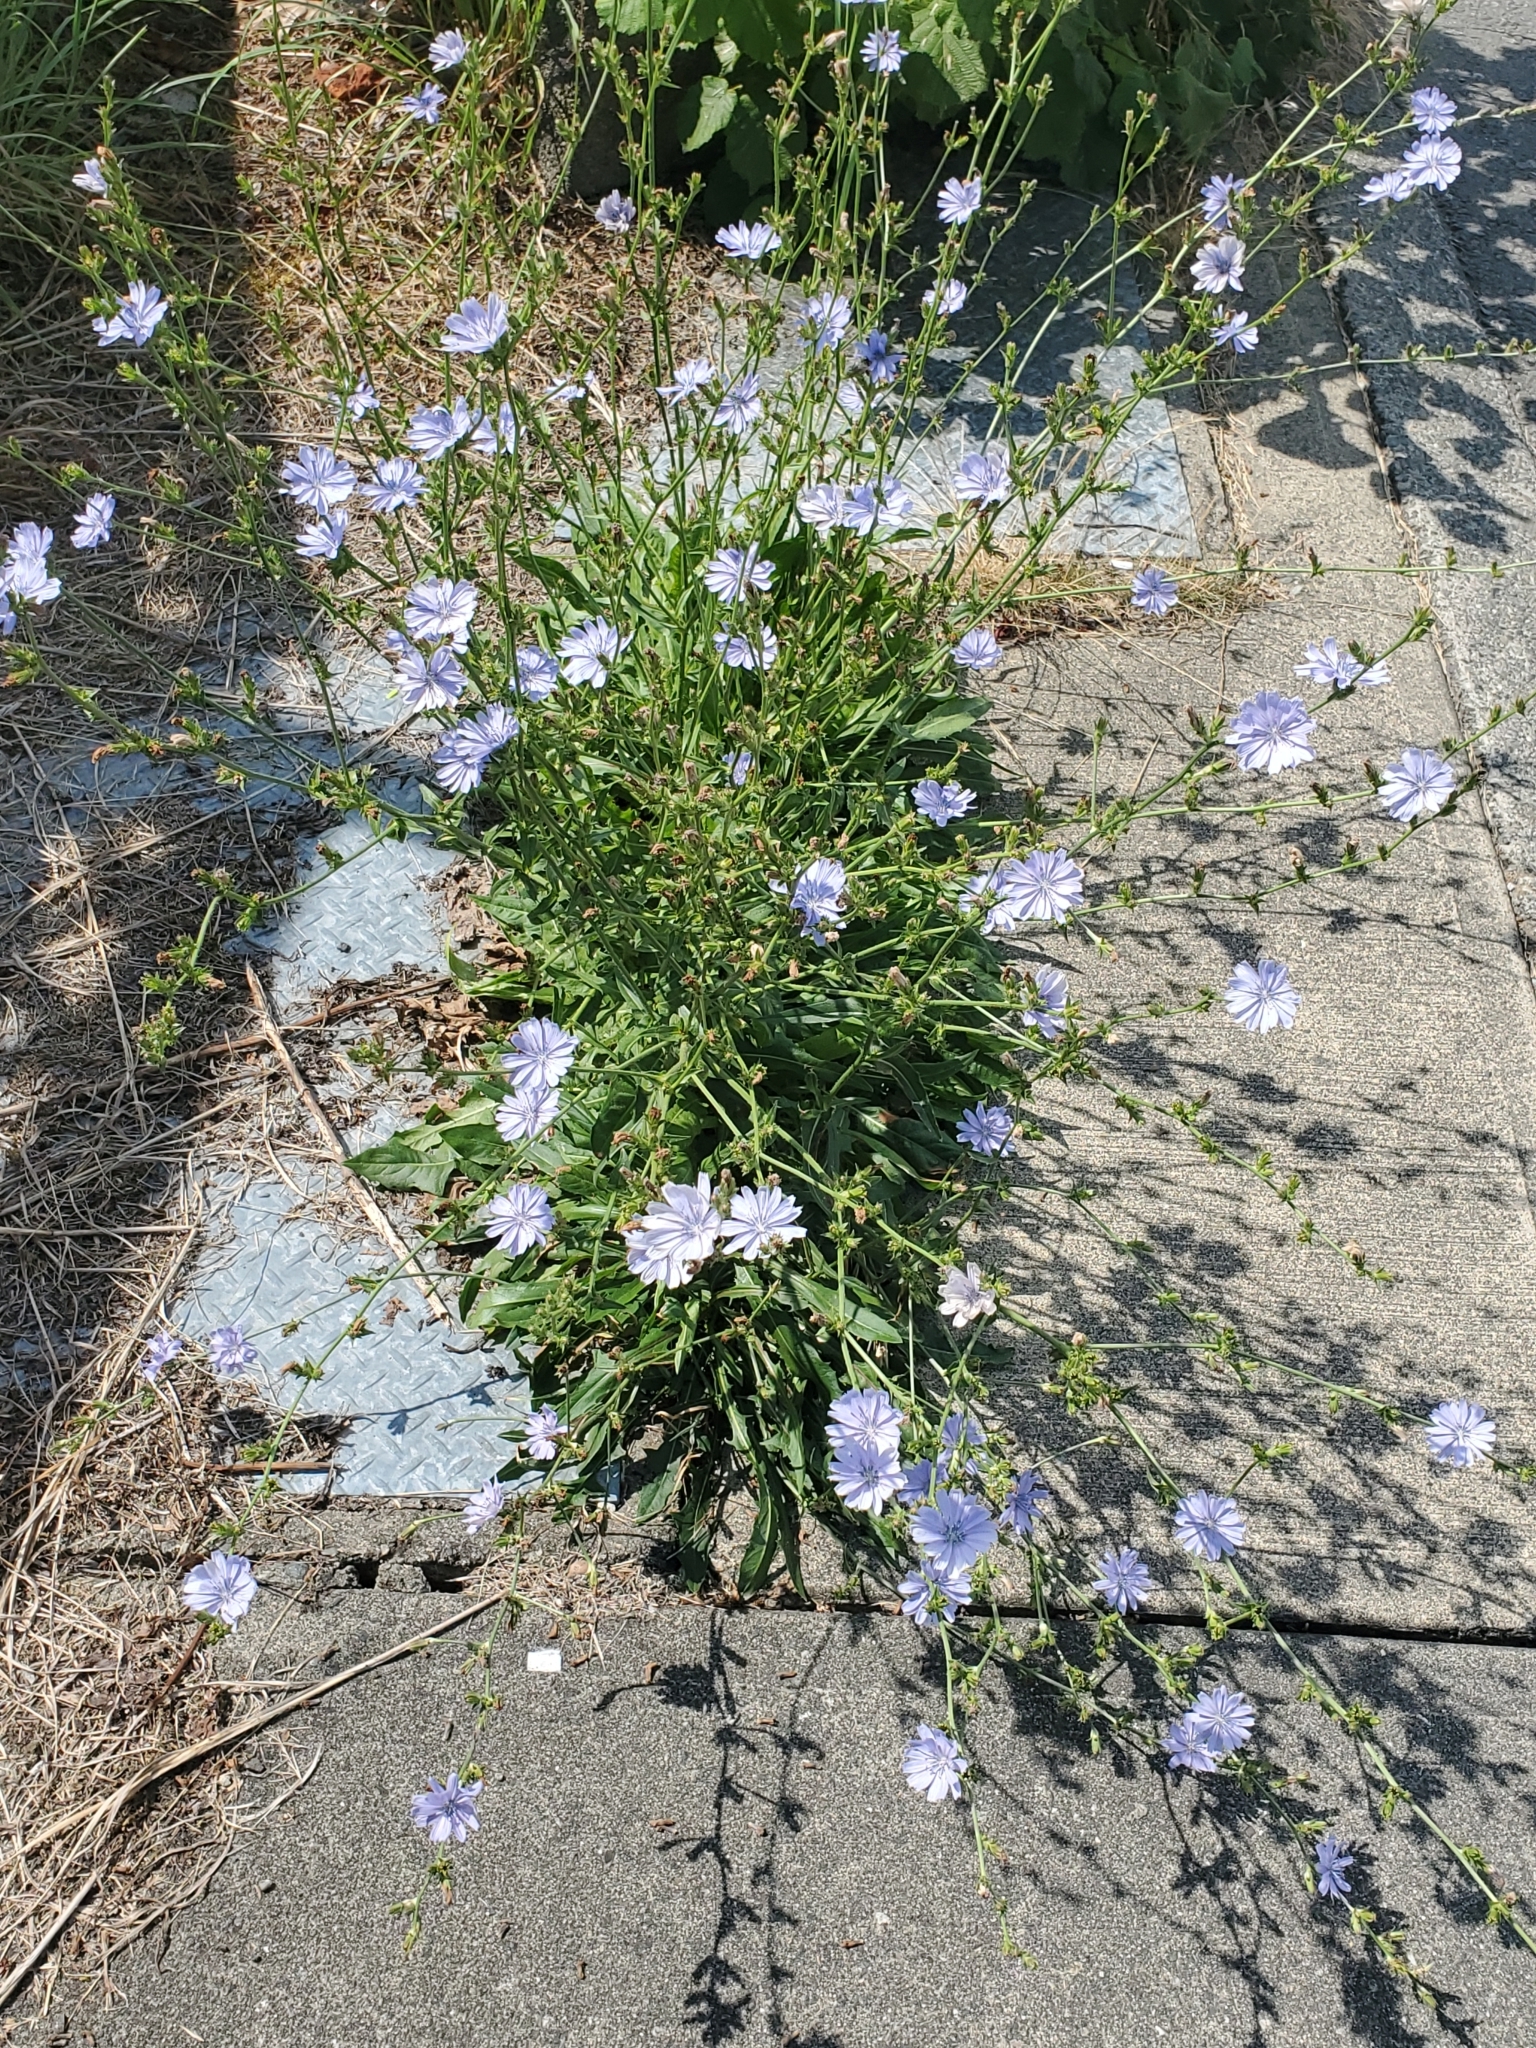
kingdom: Plantae
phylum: Tracheophyta
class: Magnoliopsida
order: Asterales
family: Asteraceae
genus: Cichorium
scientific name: Cichorium intybus
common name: Chicory
